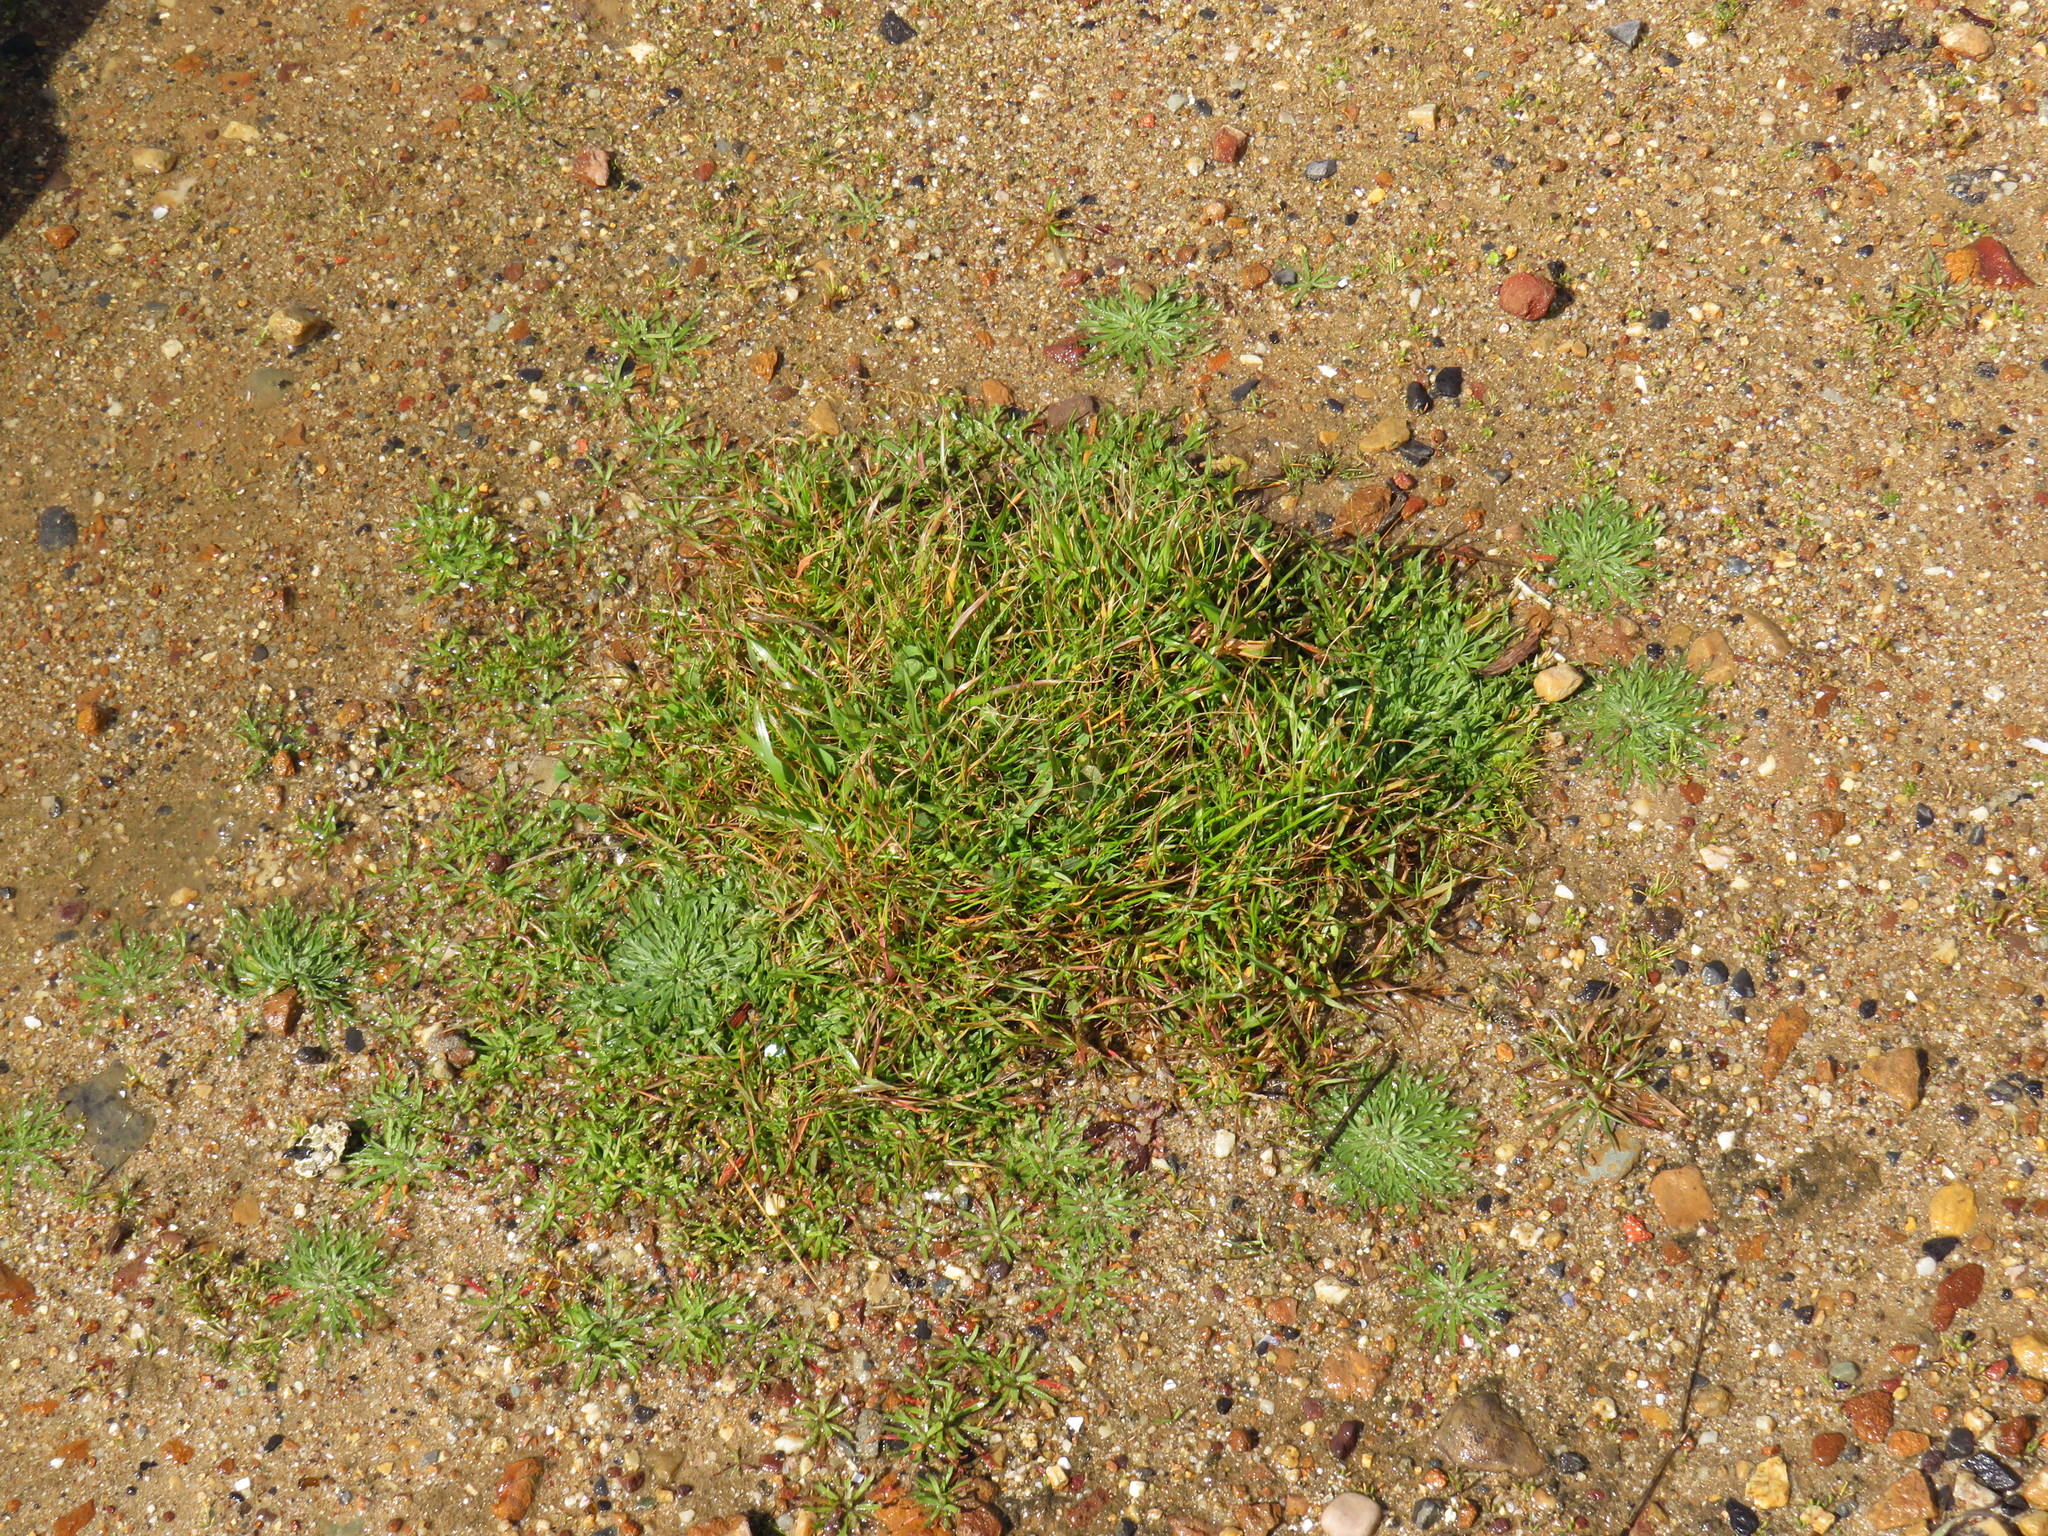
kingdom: Plantae
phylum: Tracheophyta
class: Magnoliopsida
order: Lamiales
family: Plantaginaceae
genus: Plantago
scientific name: Plantago coronopus
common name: Buck's-horn plantain
